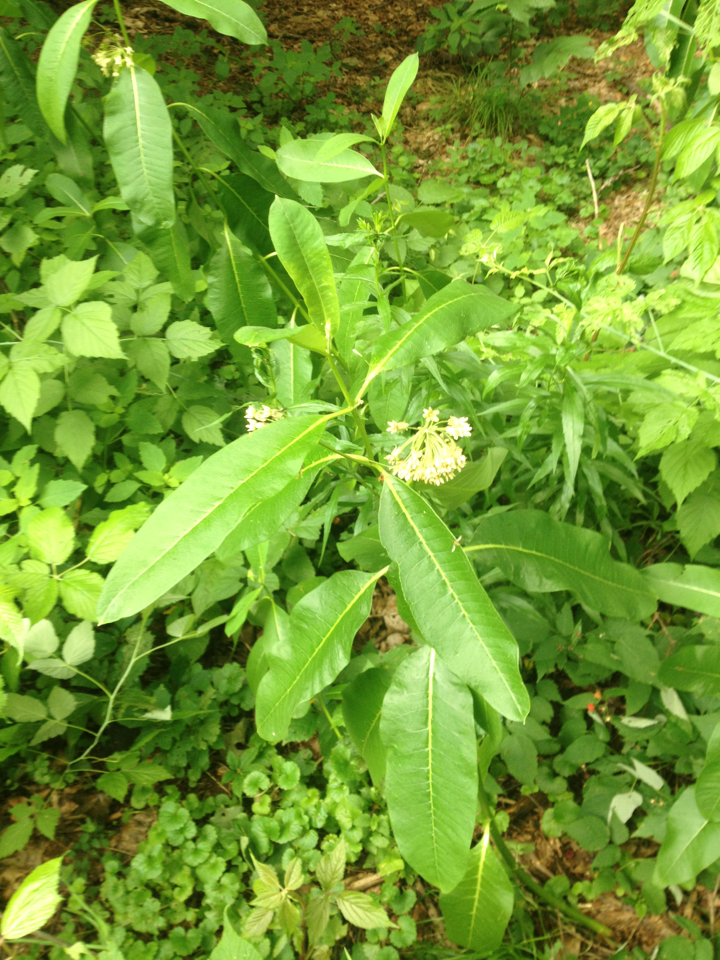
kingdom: Plantae
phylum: Tracheophyta
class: Magnoliopsida
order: Gentianales
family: Apocynaceae
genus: Asclepias
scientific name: Asclepias syriaca
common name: Common milkweed
